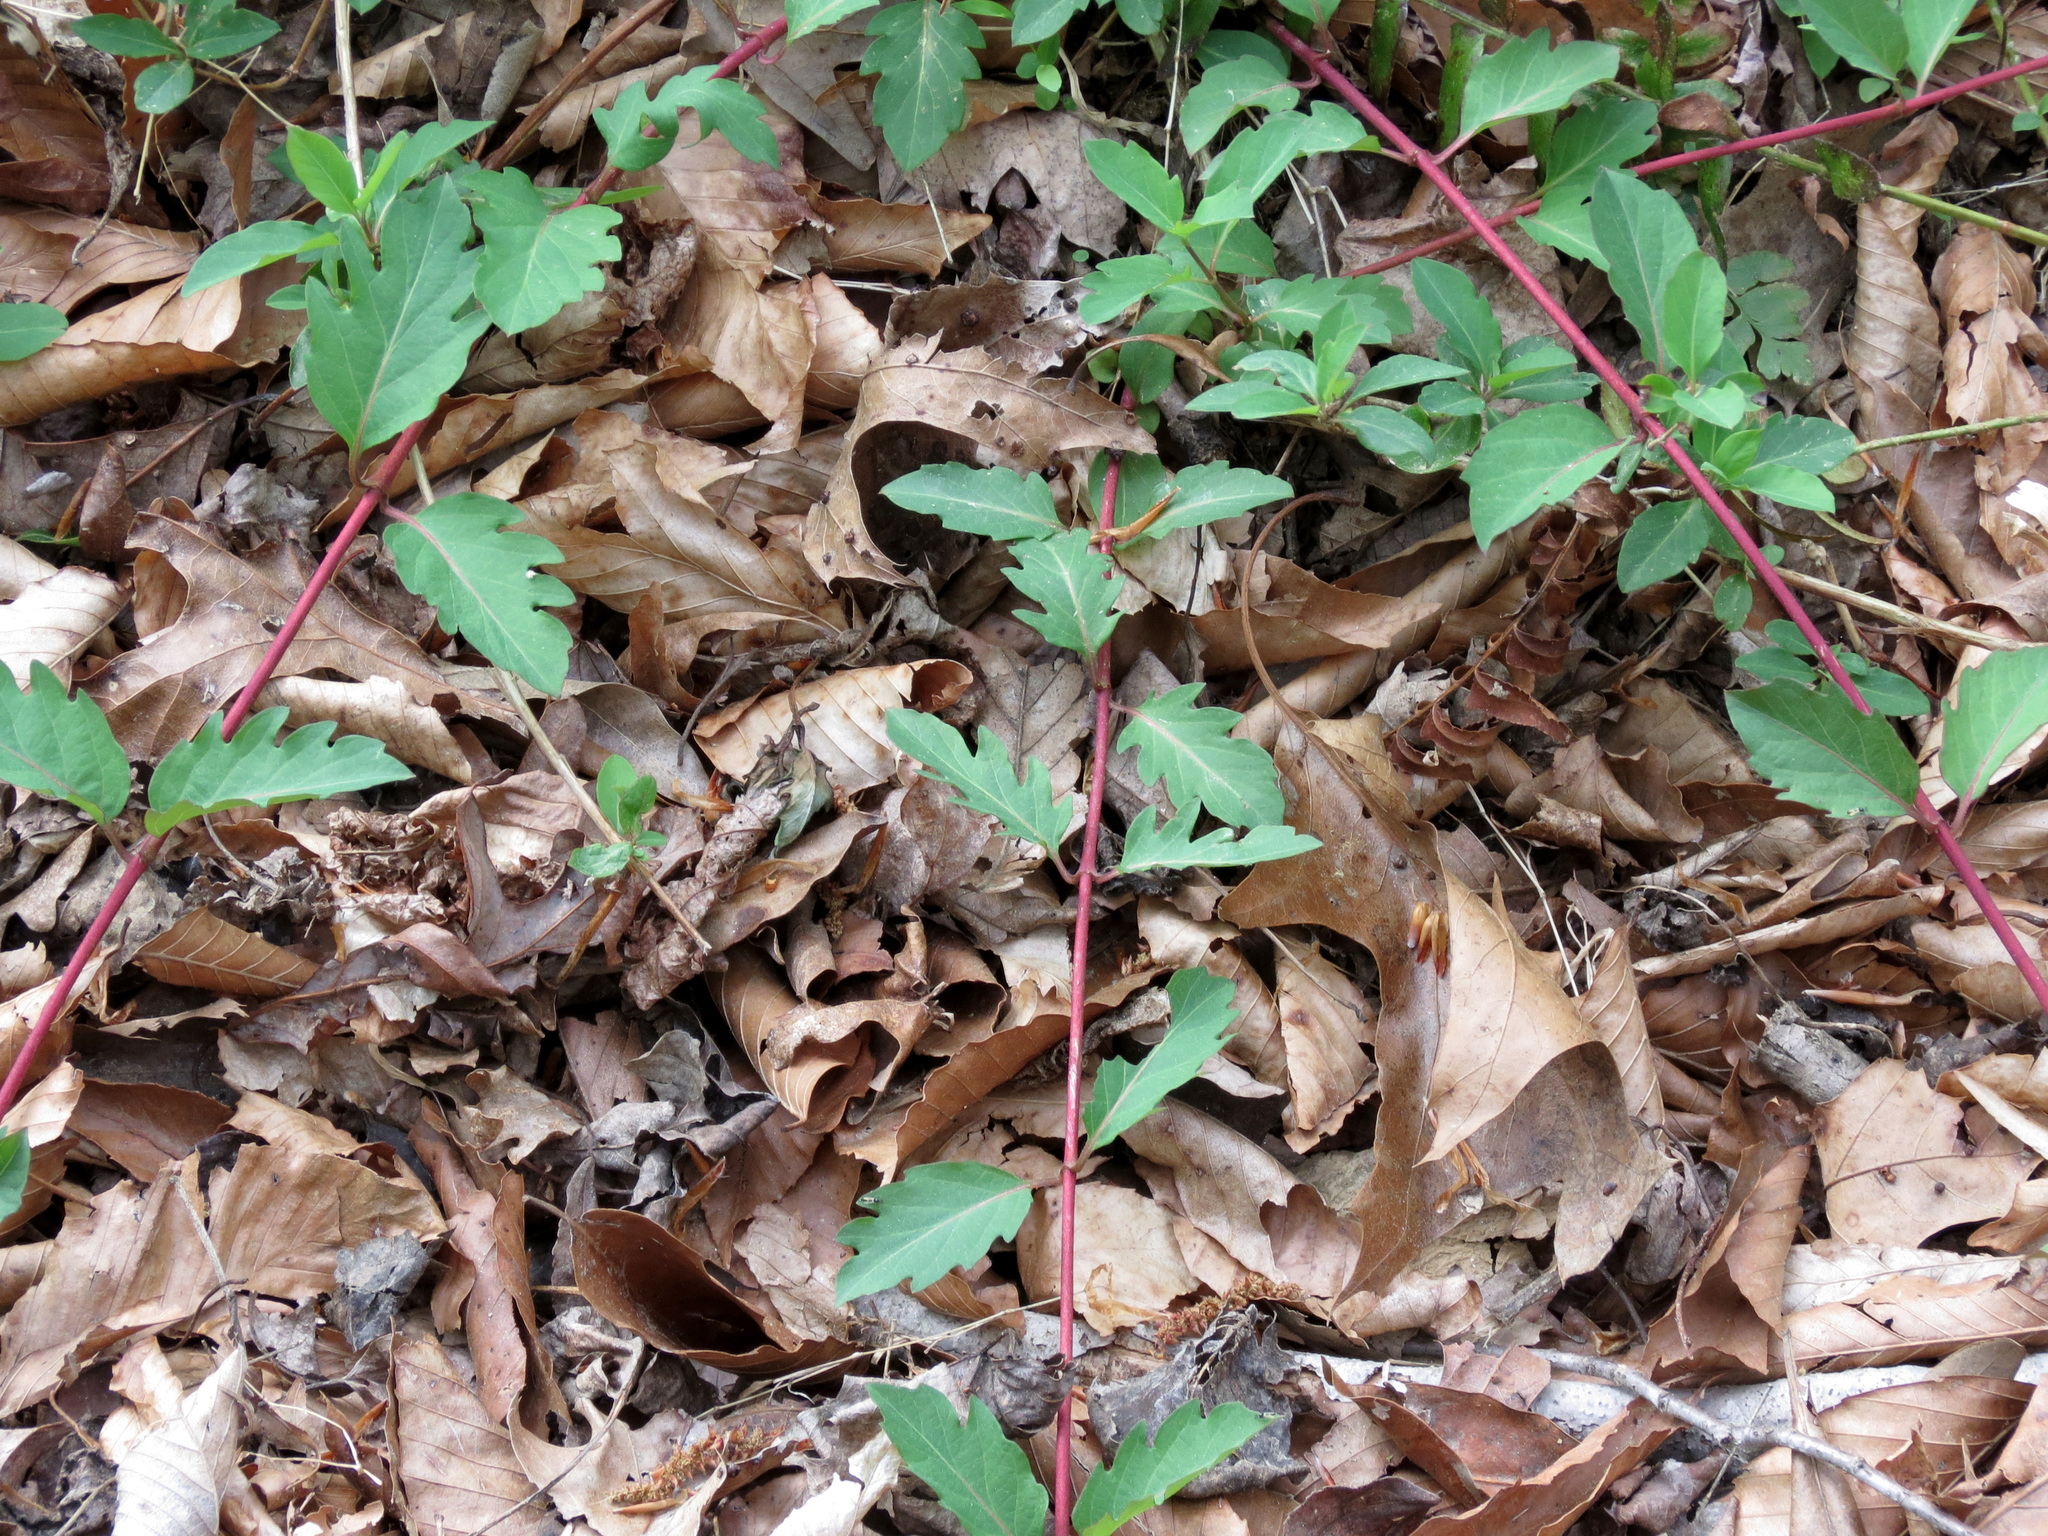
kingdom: Plantae
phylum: Tracheophyta
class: Magnoliopsida
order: Dipsacales
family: Caprifoliaceae
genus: Lonicera
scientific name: Lonicera japonica
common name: Japanese honeysuckle
